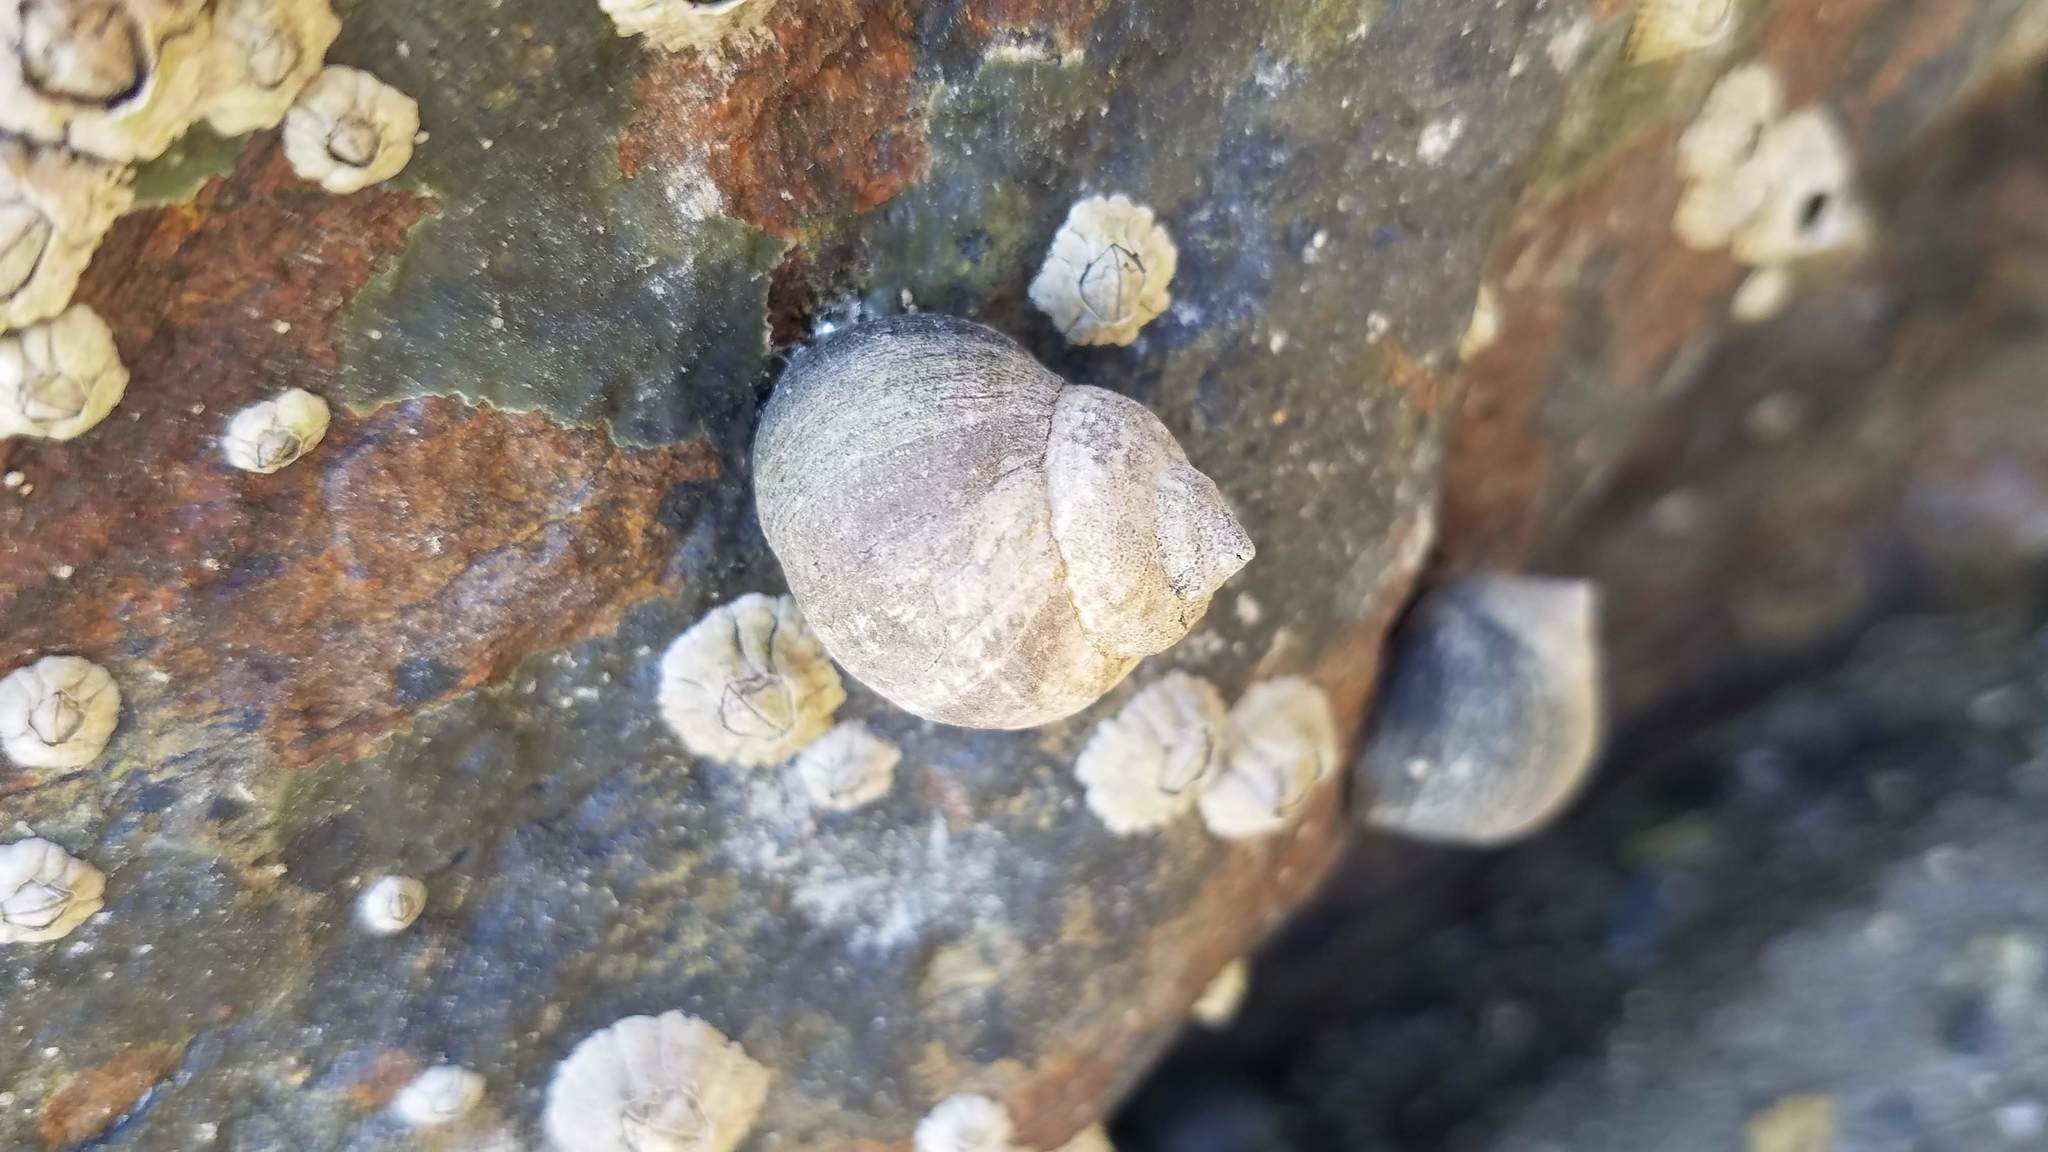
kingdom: Animalia
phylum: Mollusca
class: Gastropoda
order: Littorinimorpha
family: Littorinidae
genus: Littorina
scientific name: Littorina littorea
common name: Common periwinkle
